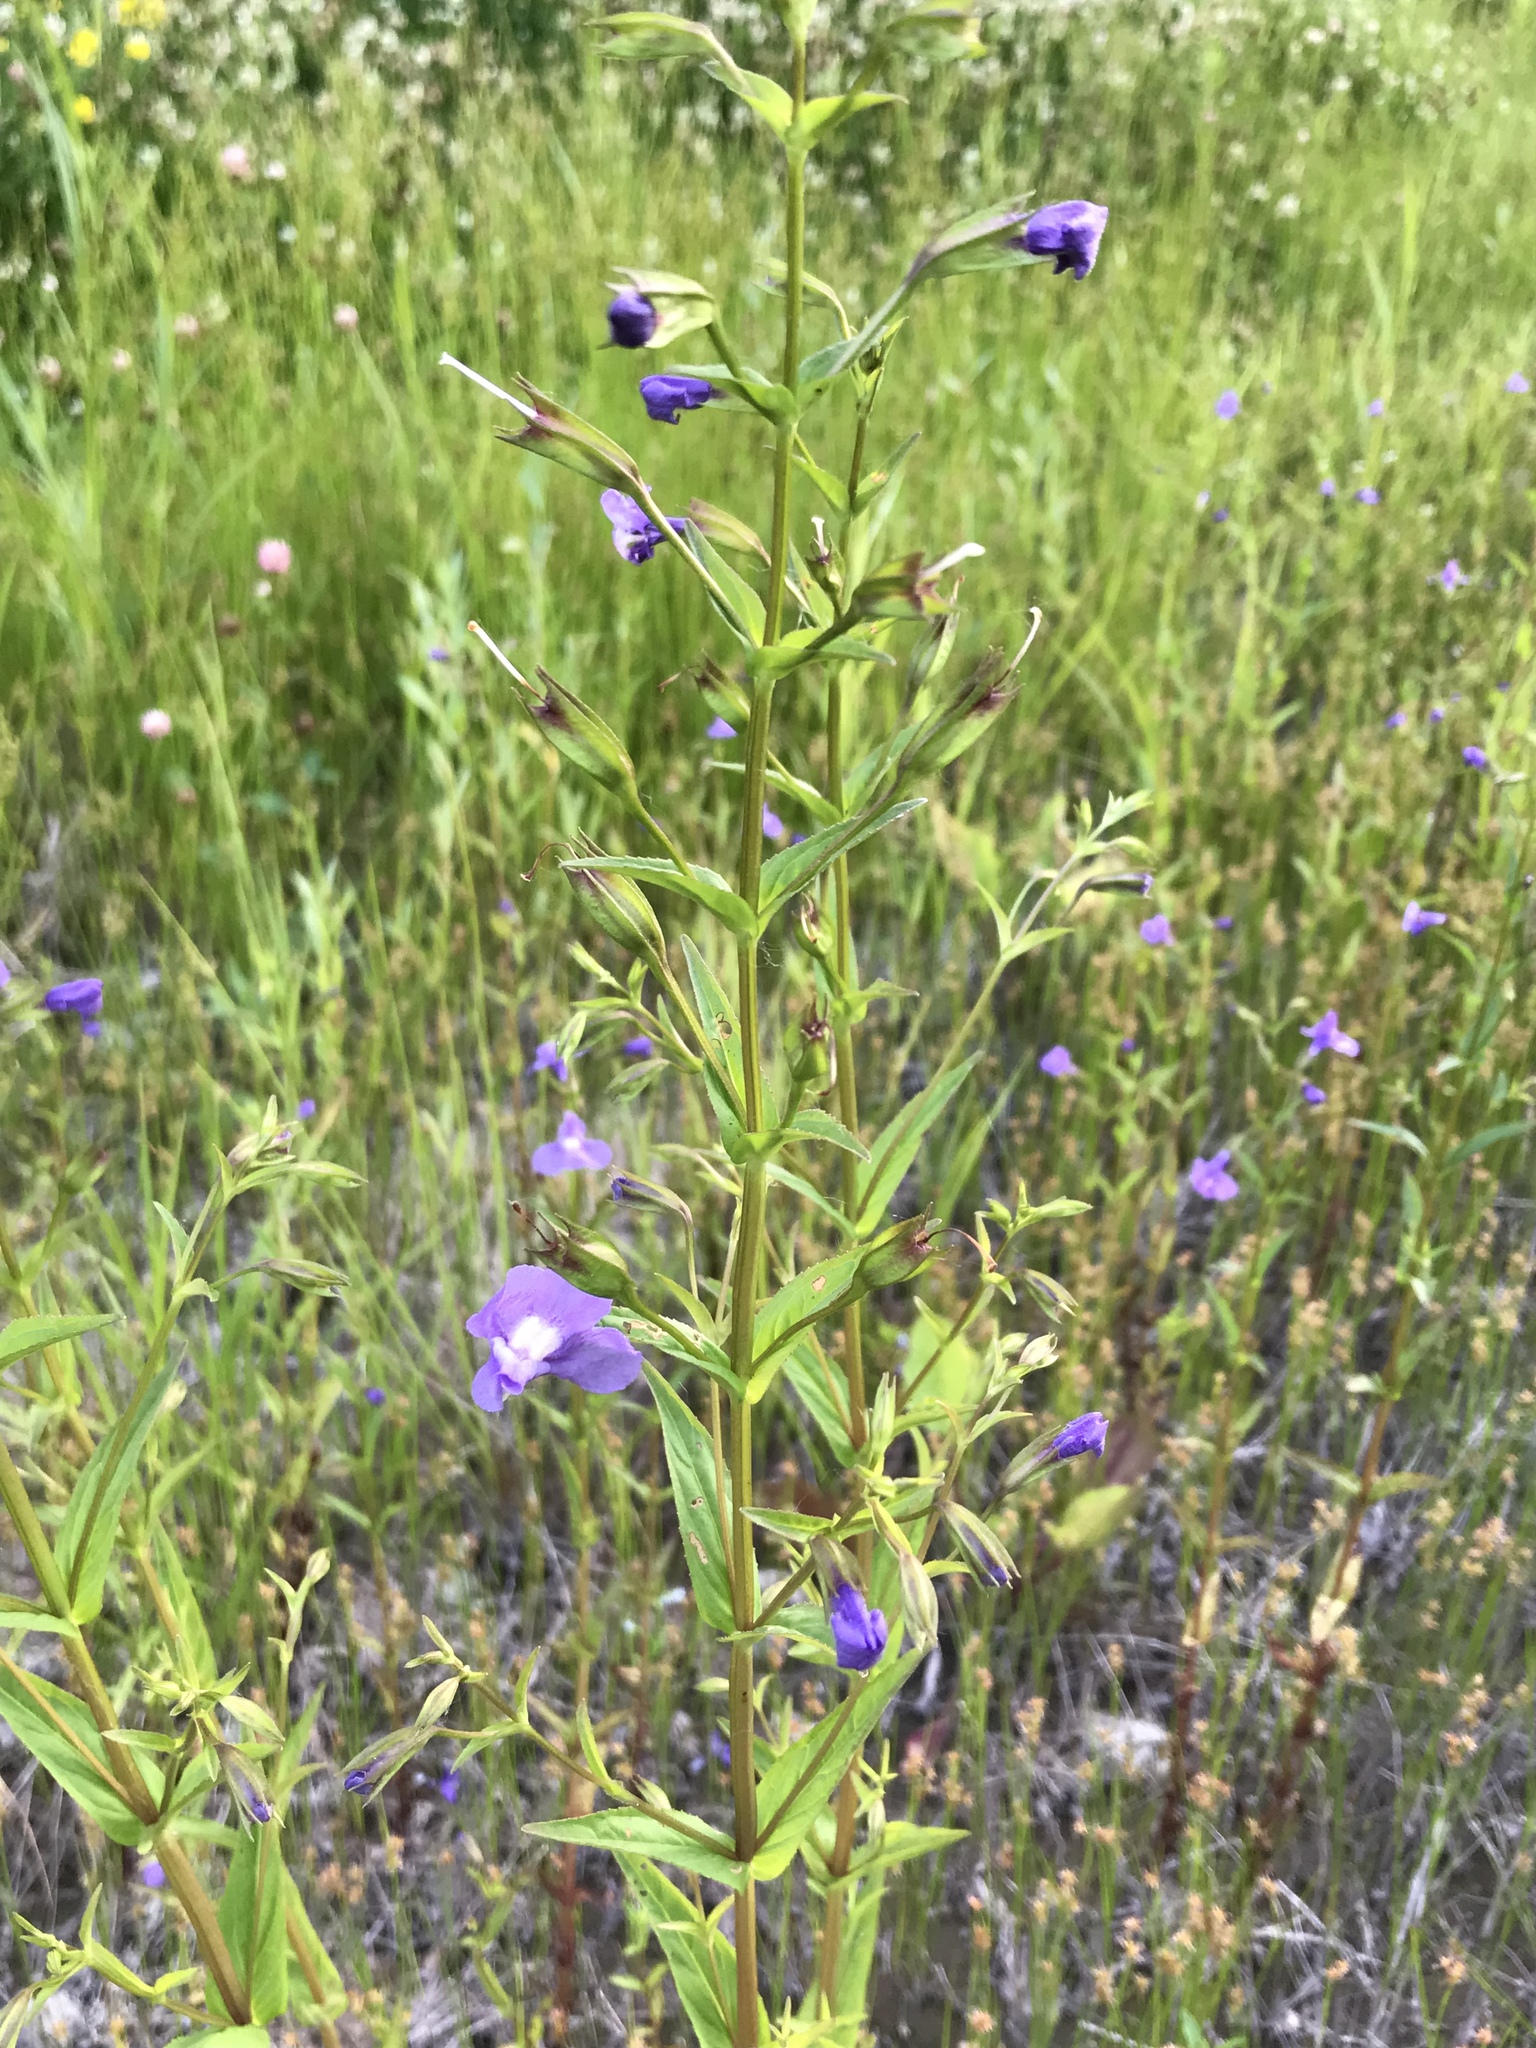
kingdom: Plantae
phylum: Tracheophyta
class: Magnoliopsida
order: Lamiales
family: Phrymaceae
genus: Mimulus
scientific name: Mimulus ringens
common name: Allegheny monkeyflower
